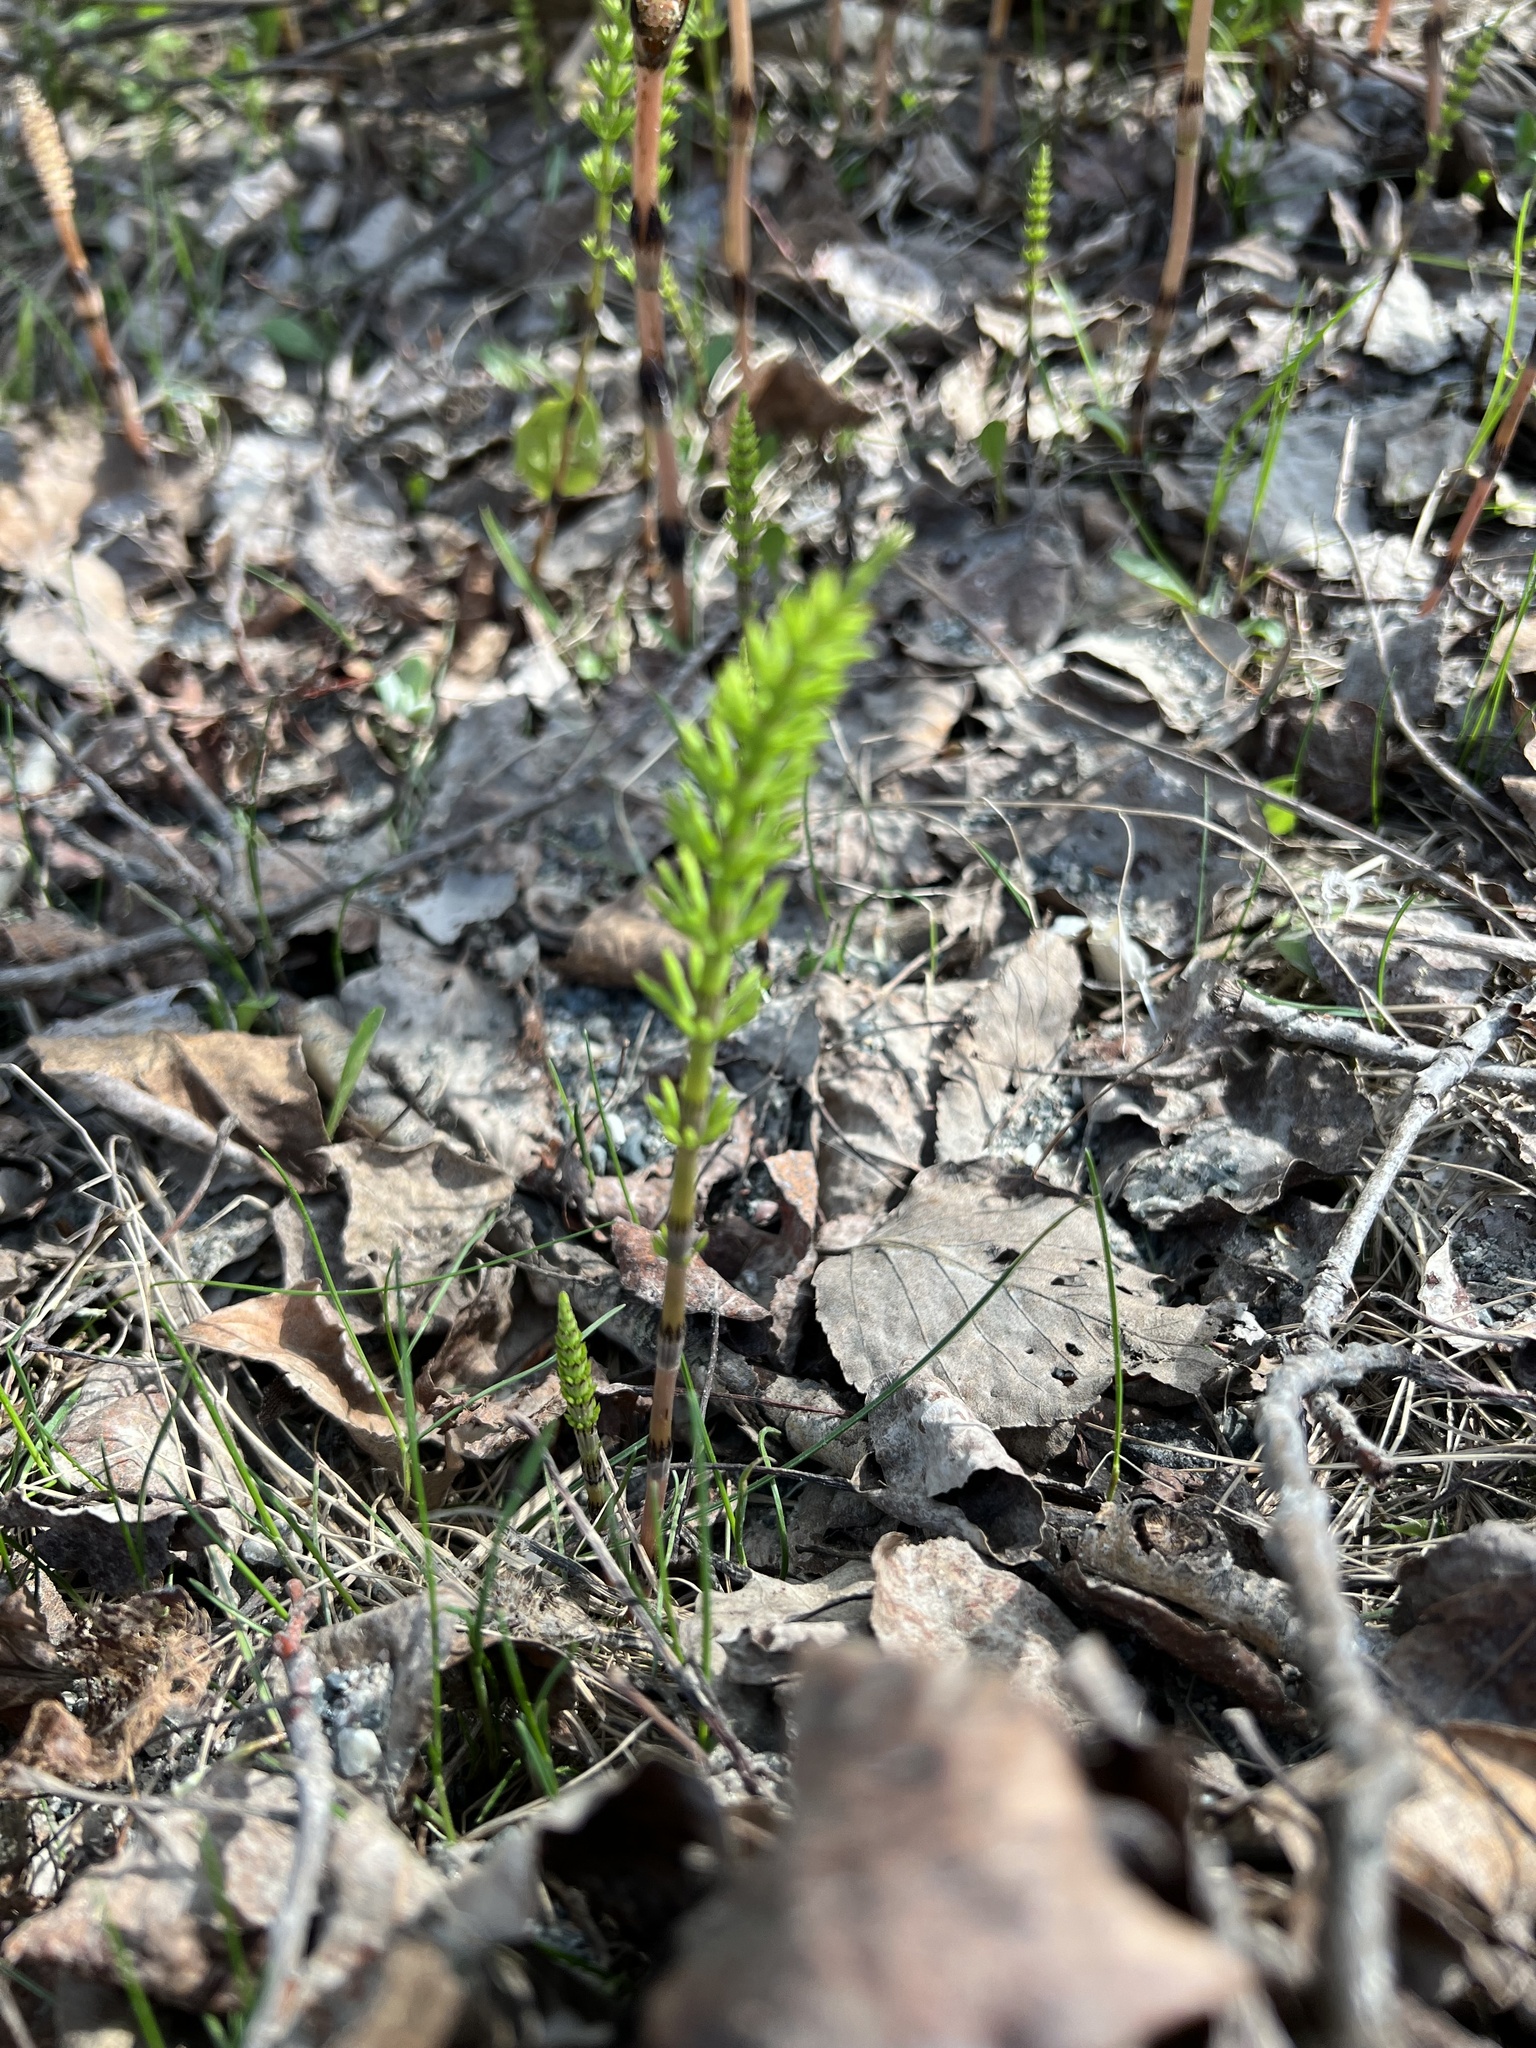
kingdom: Plantae
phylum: Tracheophyta
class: Polypodiopsida
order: Equisetales
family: Equisetaceae
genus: Equisetum
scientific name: Equisetum arvense
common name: Field horsetail
